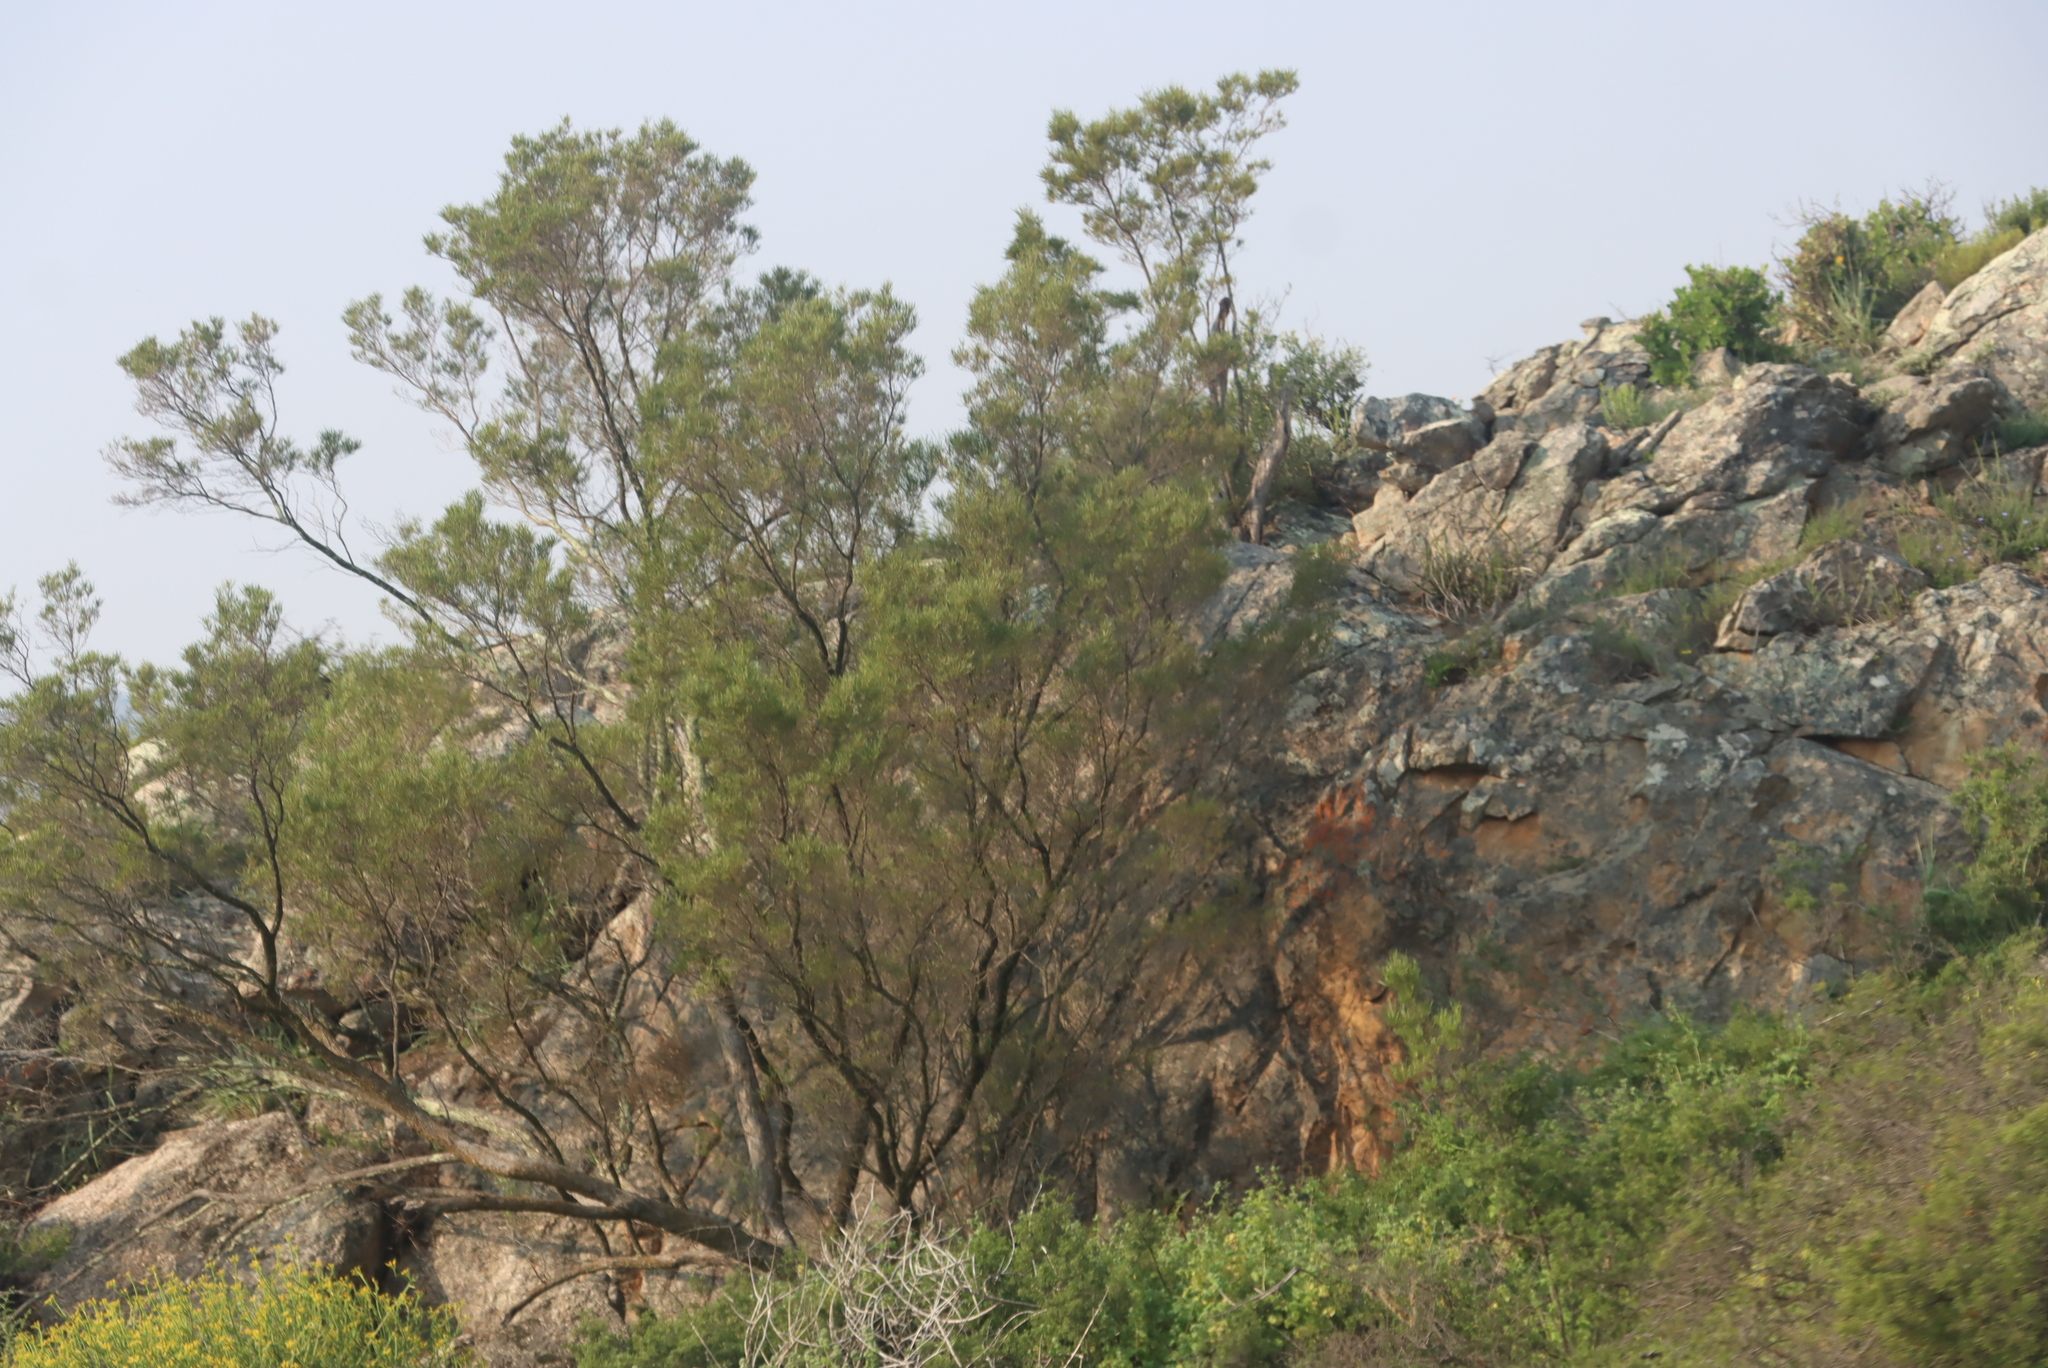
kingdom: Plantae
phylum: Tracheophyta
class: Magnoliopsida
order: Sapindales
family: Sapindaceae
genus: Dodonaea
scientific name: Dodonaea viscosa
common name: Hopbush
